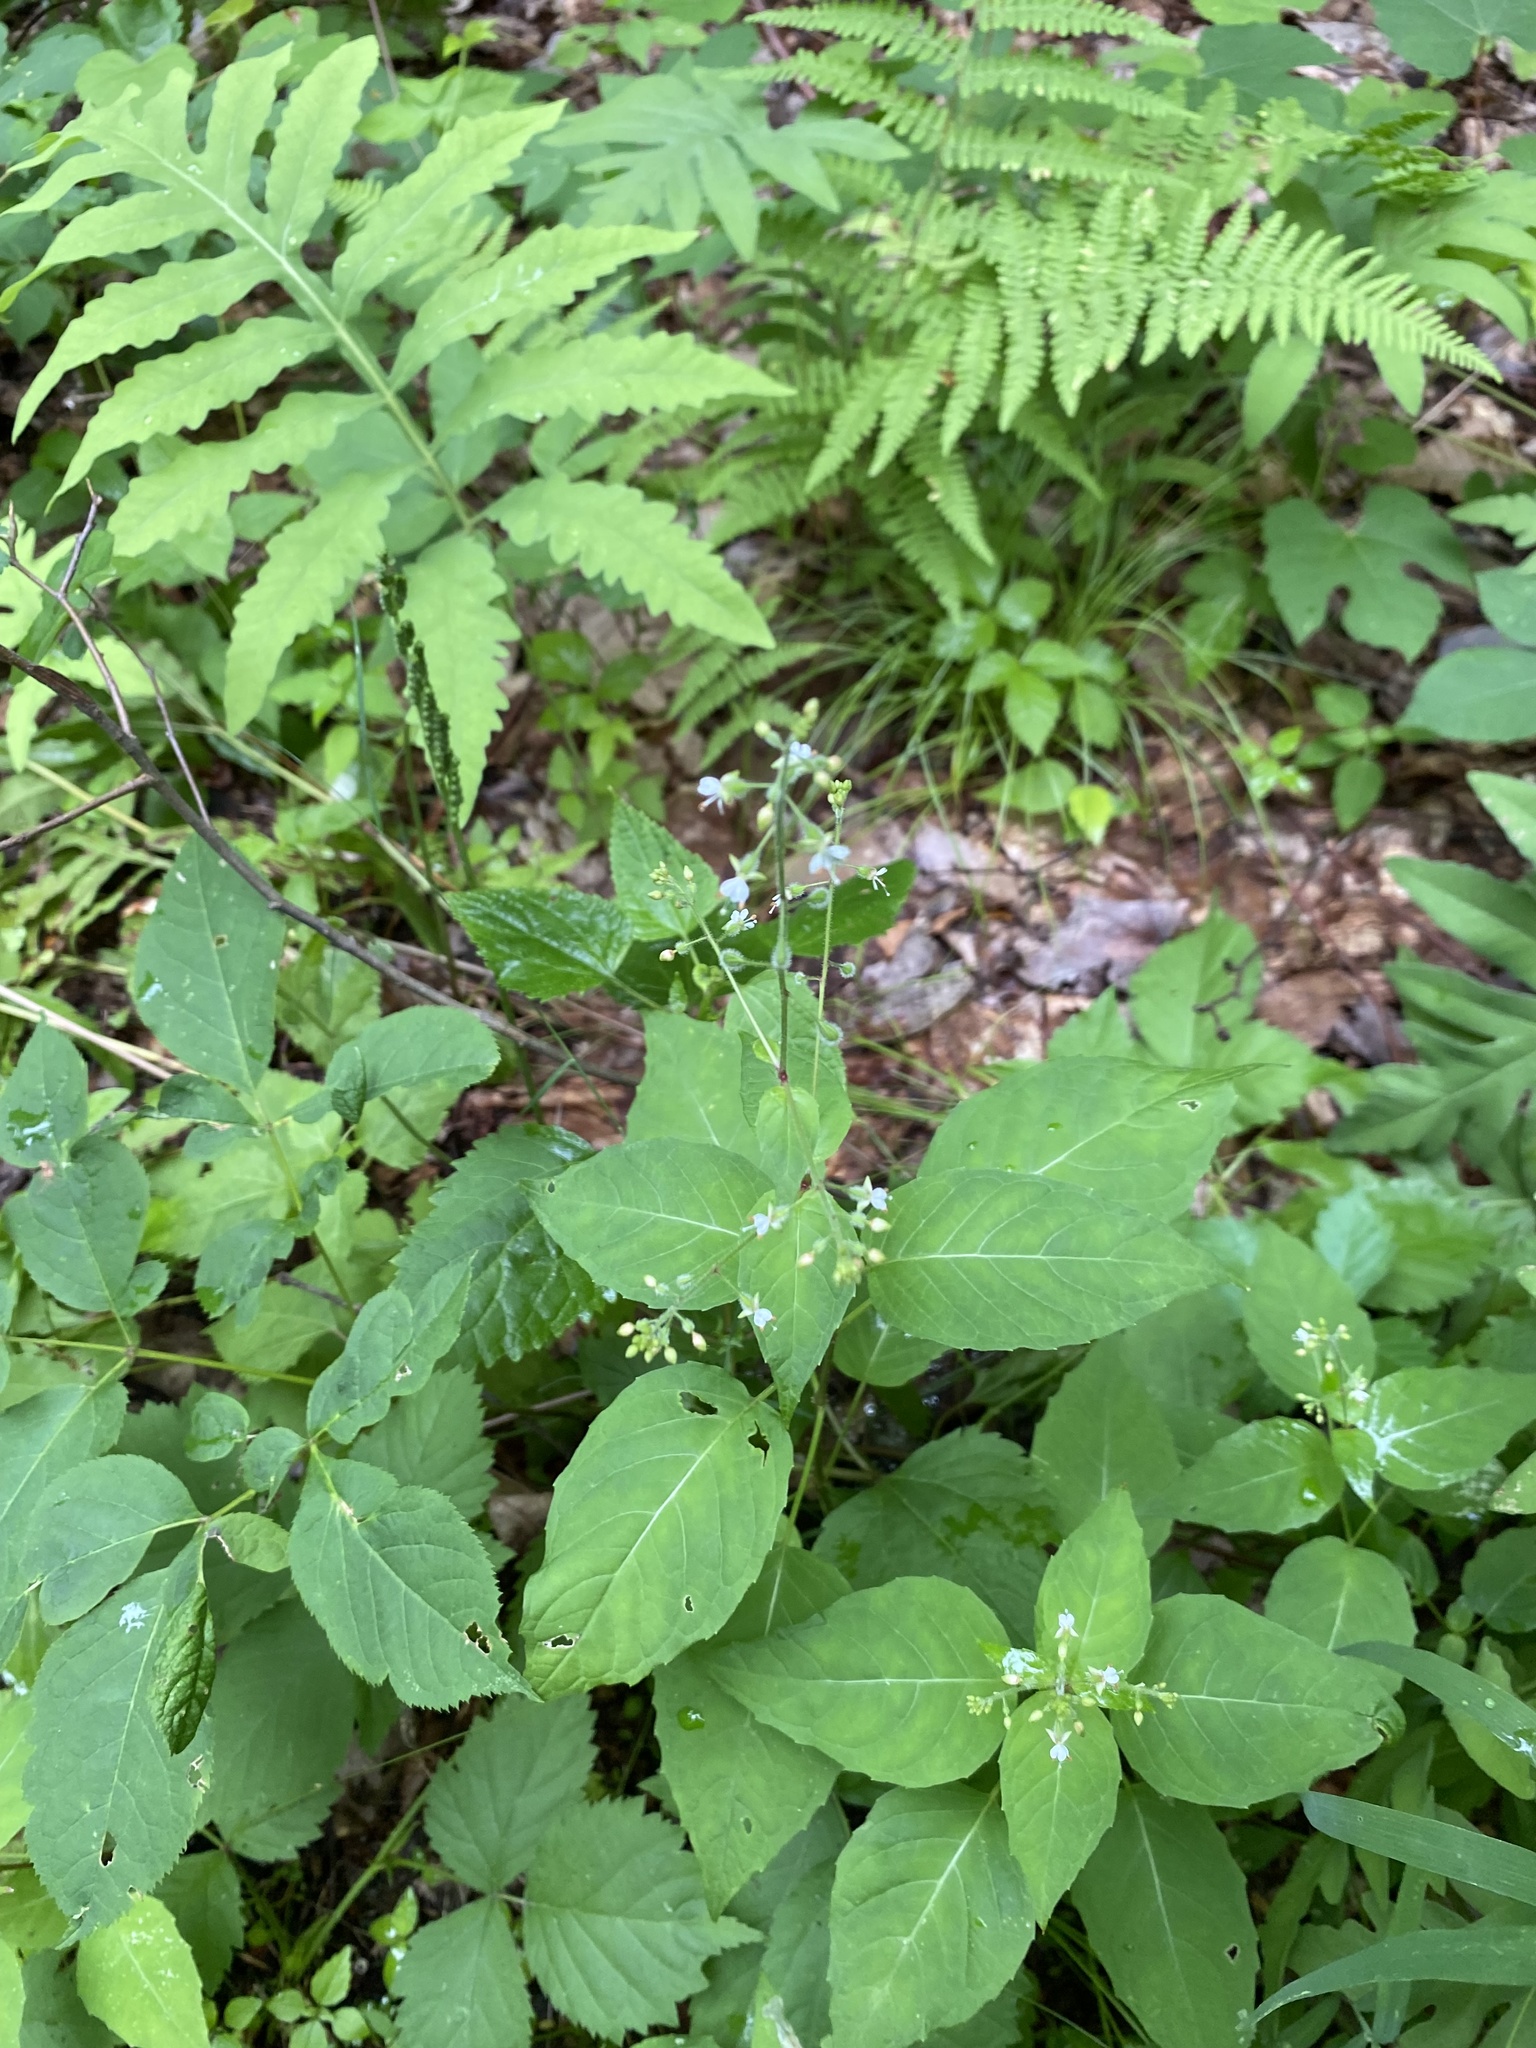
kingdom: Plantae
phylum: Tracheophyta
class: Magnoliopsida
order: Myrtales
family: Onagraceae
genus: Circaea
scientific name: Circaea canadensis
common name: Broad-leaved enchanter's nightshade
